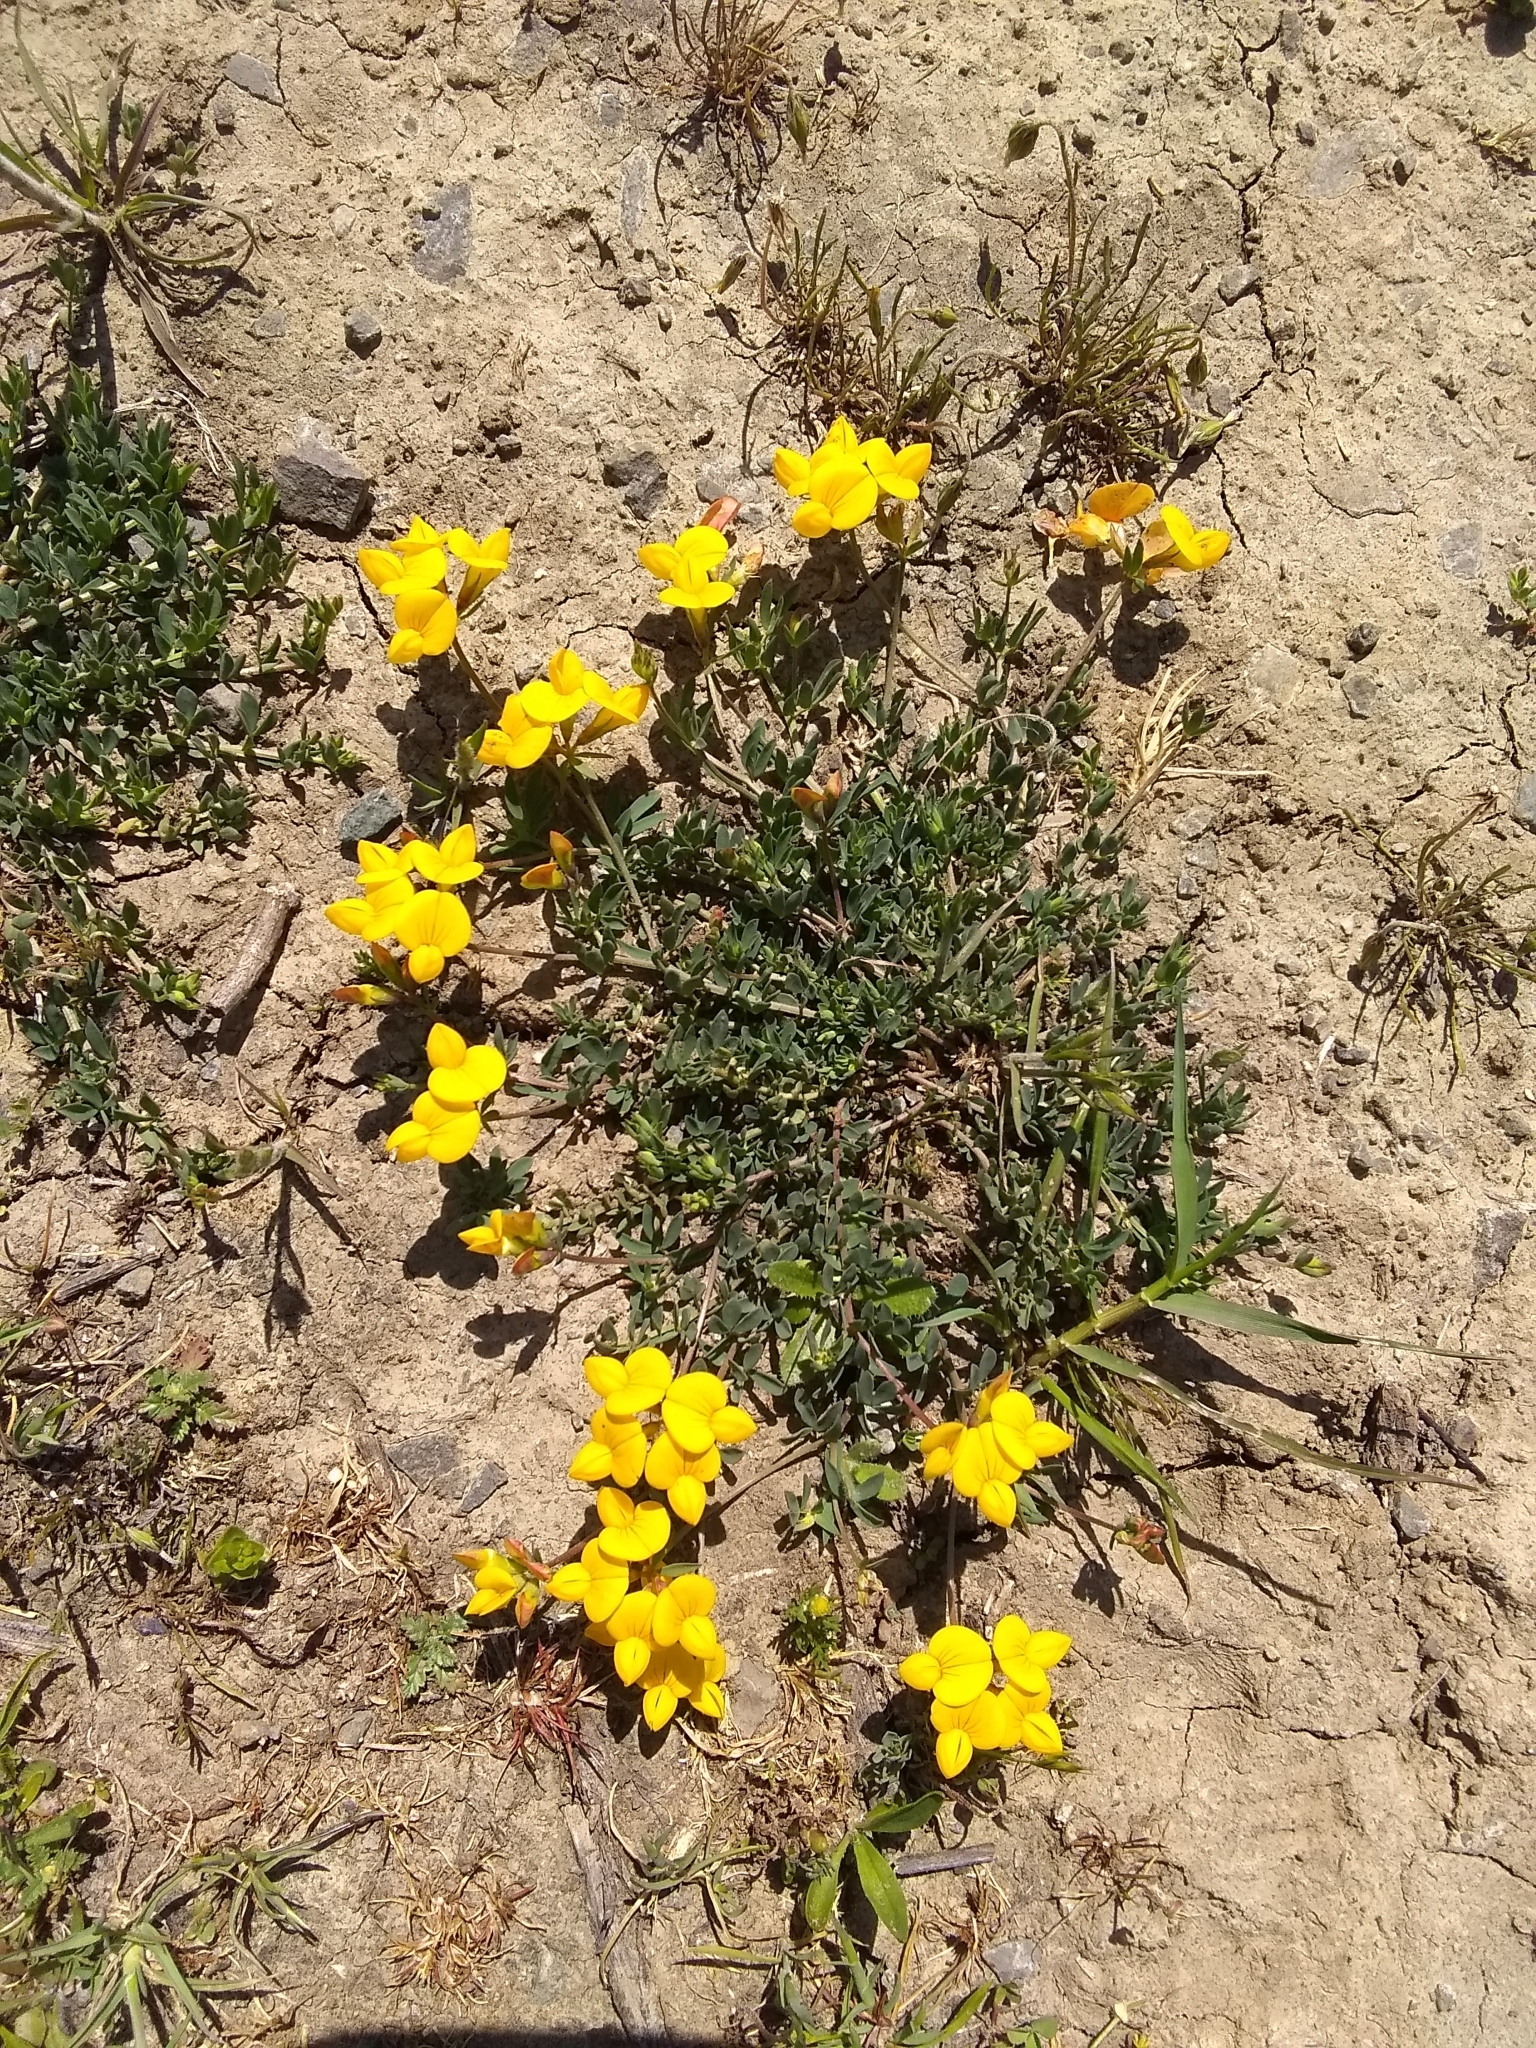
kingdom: Plantae
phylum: Tracheophyta
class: Magnoliopsida
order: Fabales
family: Fabaceae
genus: Lotus
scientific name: Lotus corniculatus
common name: Common bird's-foot-trefoil
